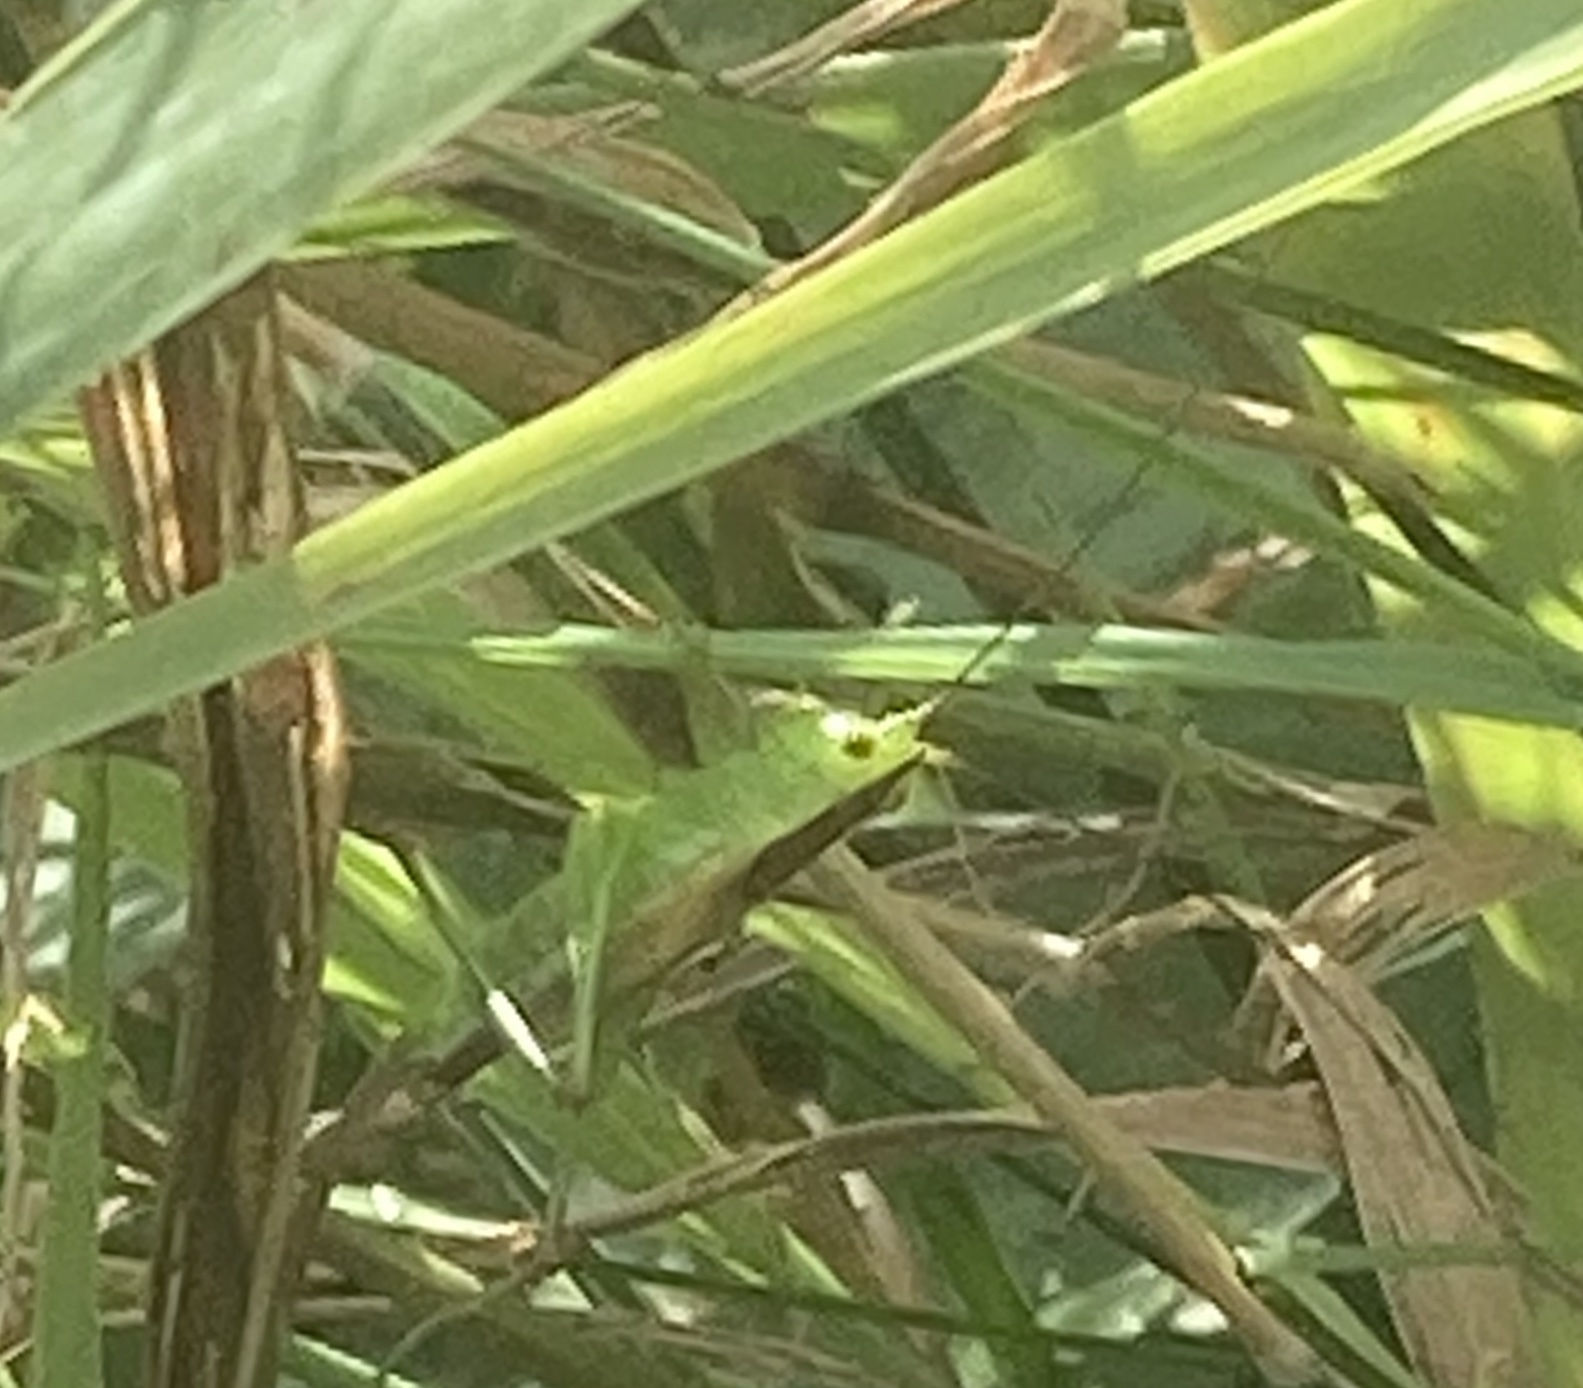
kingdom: Animalia
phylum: Arthropoda
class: Insecta
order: Orthoptera
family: Tettigoniidae
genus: Conocephalus
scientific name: Conocephalus dorsalis
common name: Short-winged conehead
